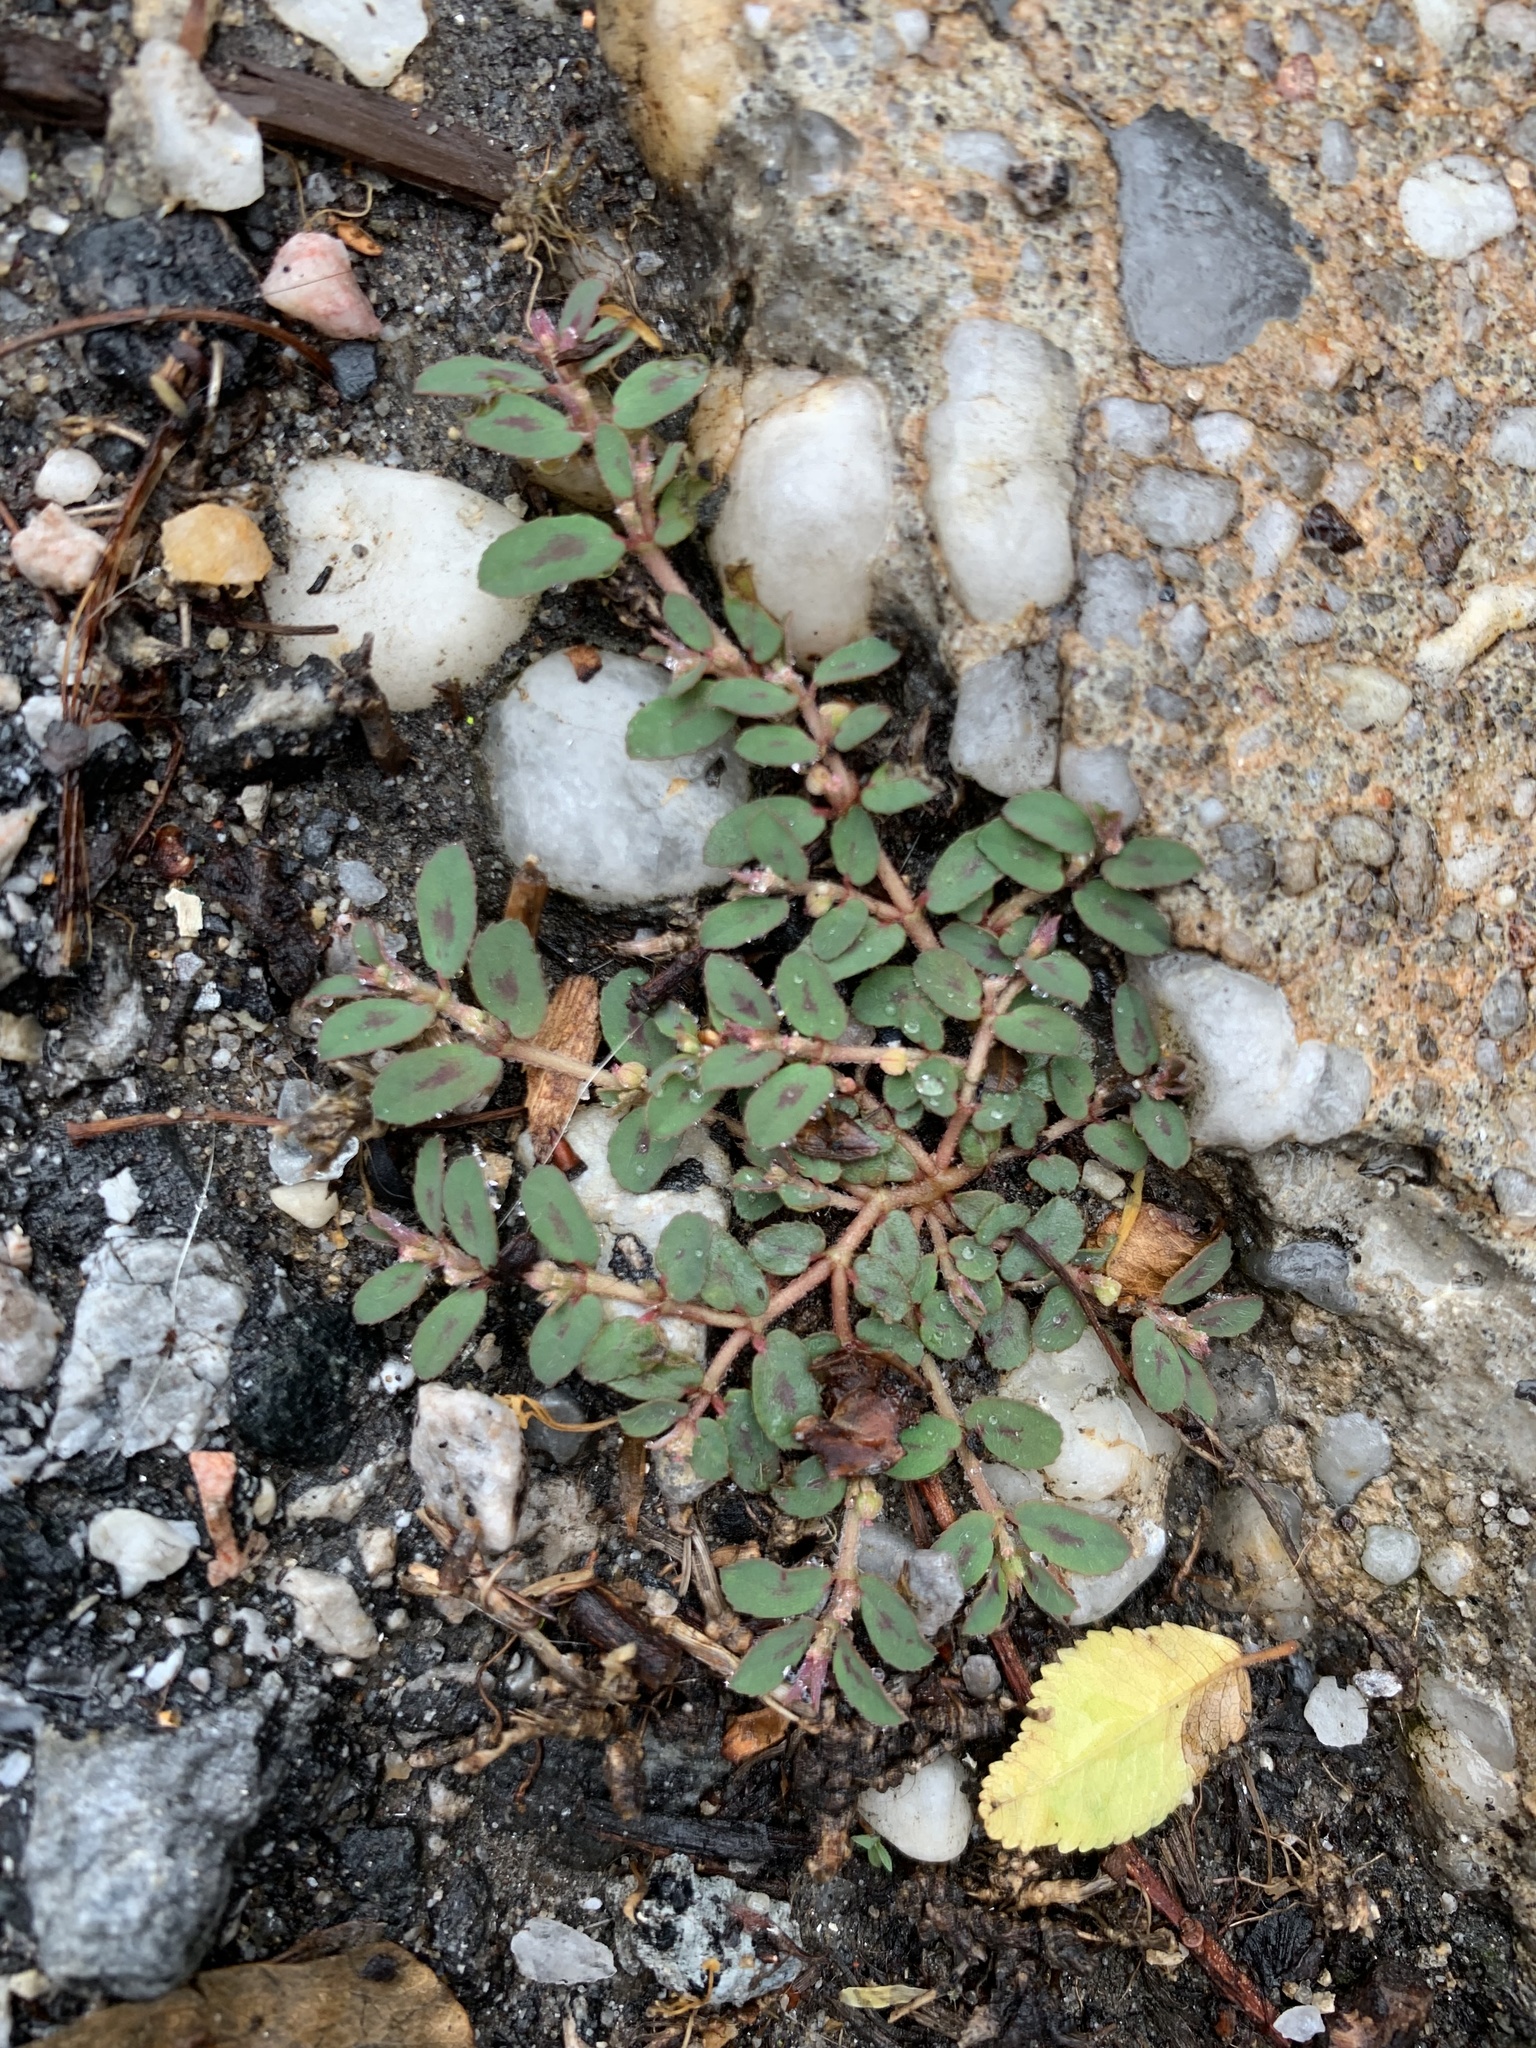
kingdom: Plantae
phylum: Tracheophyta
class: Magnoliopsida
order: Malpighiales
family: Euphorbiaceae
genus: Euphorbia
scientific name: Euphorbia maculata
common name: Spotted spurge
